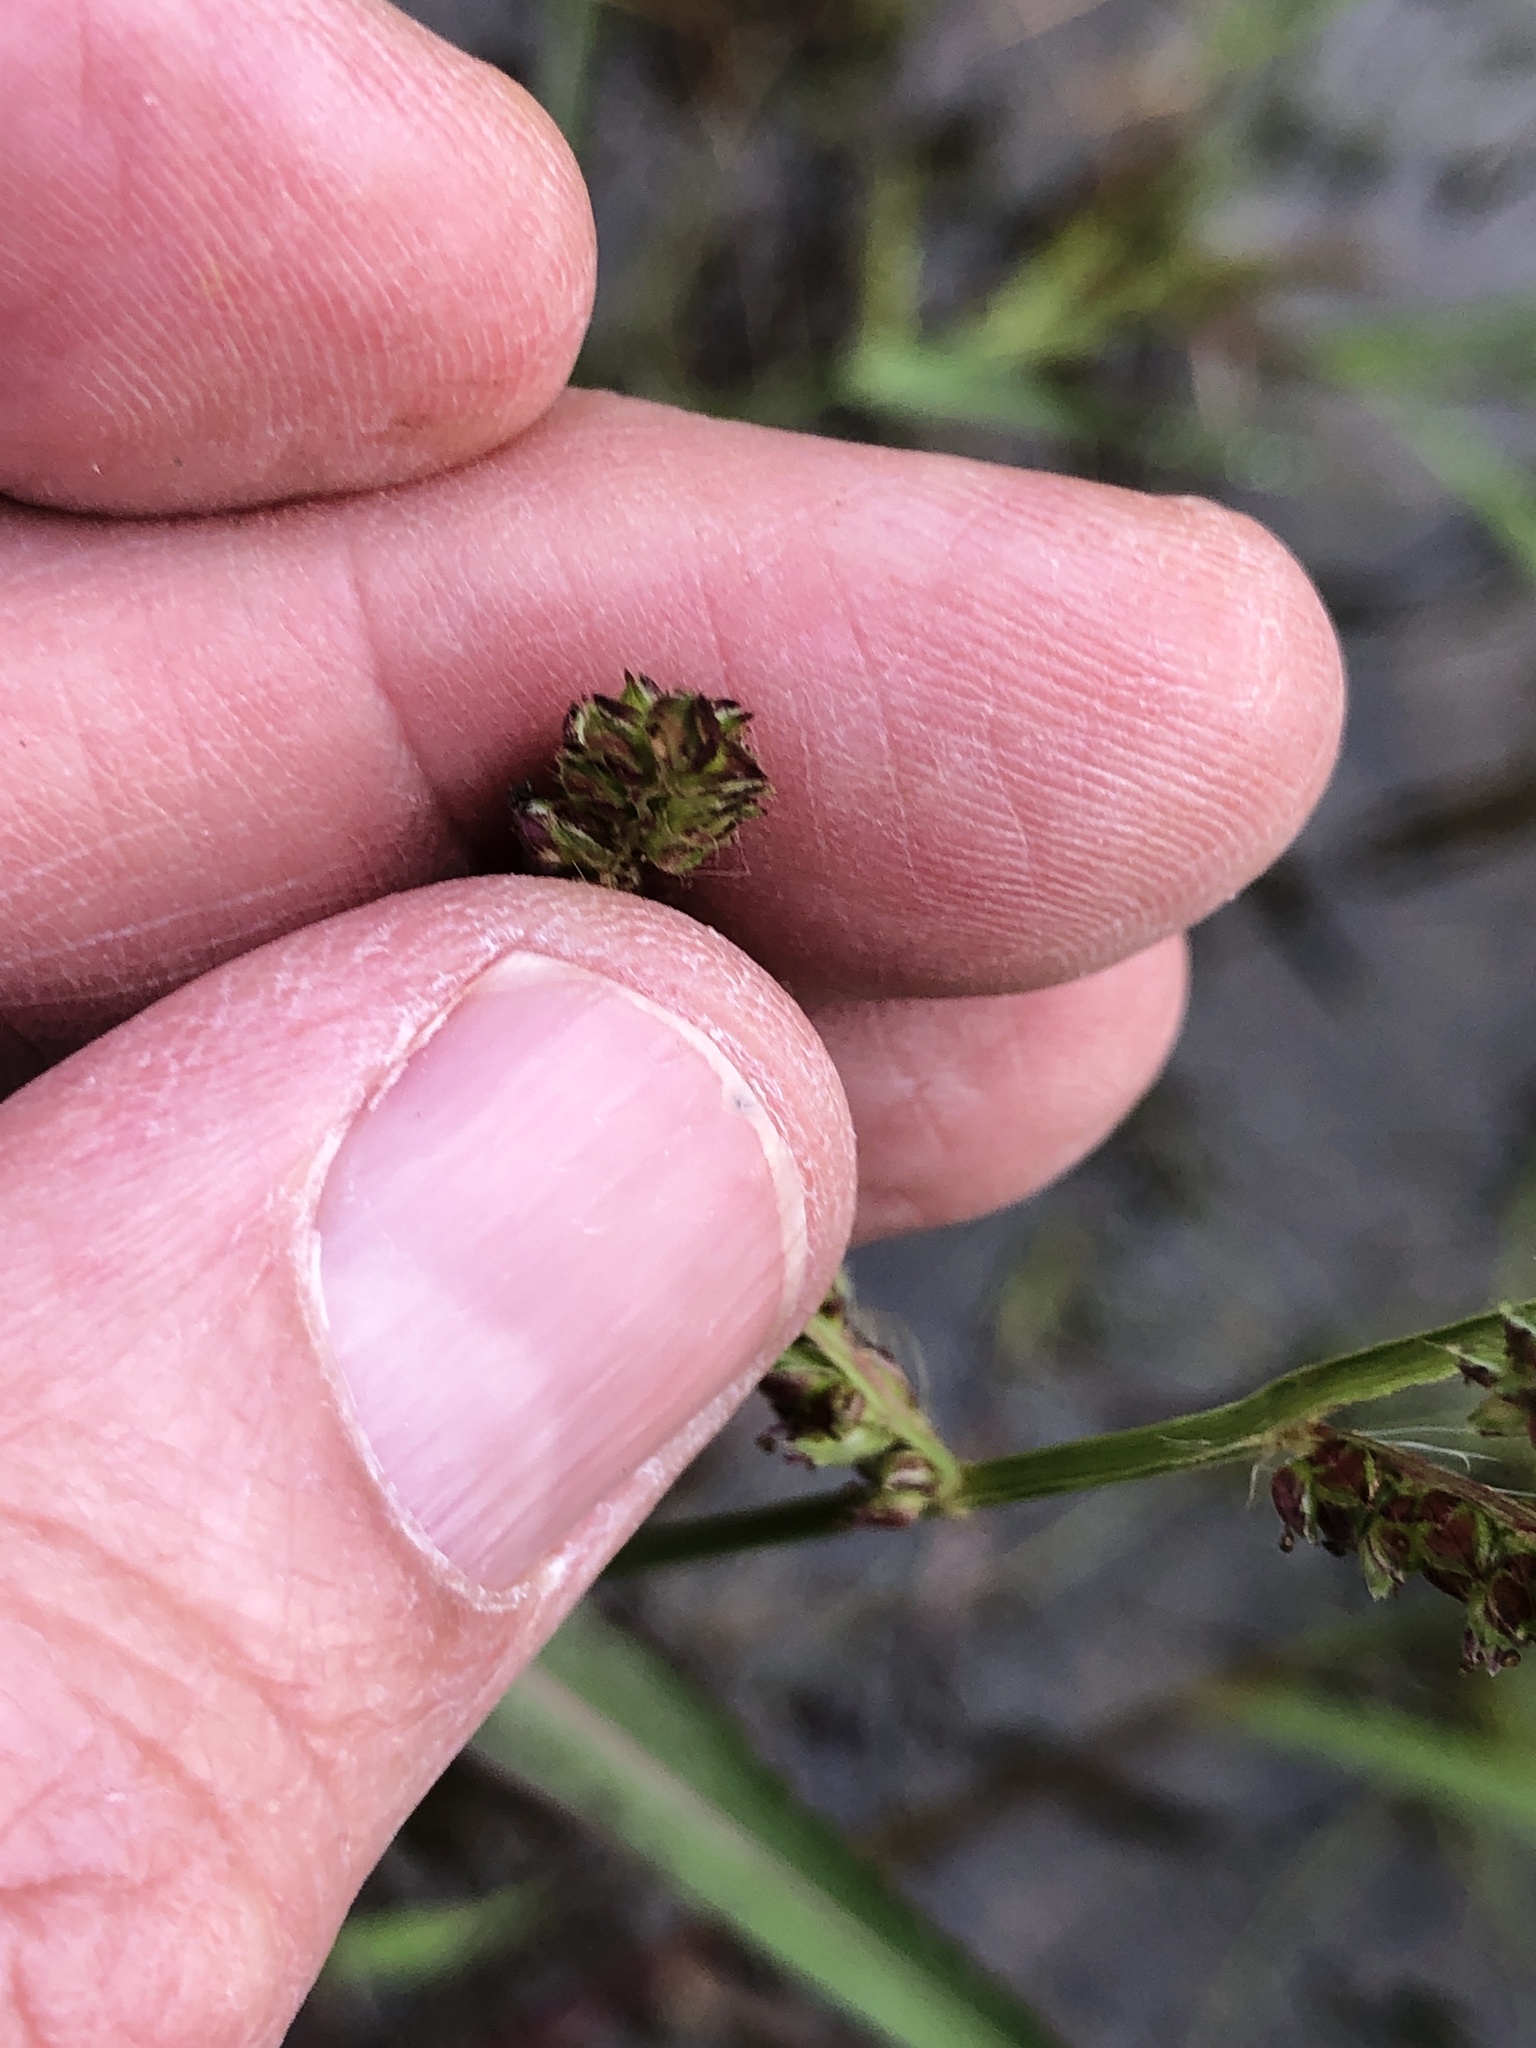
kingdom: Plantae
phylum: Tracheophyta
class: Liliopsida
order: Poales
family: Poaceae
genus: Echinochloa
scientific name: Echinochloa
